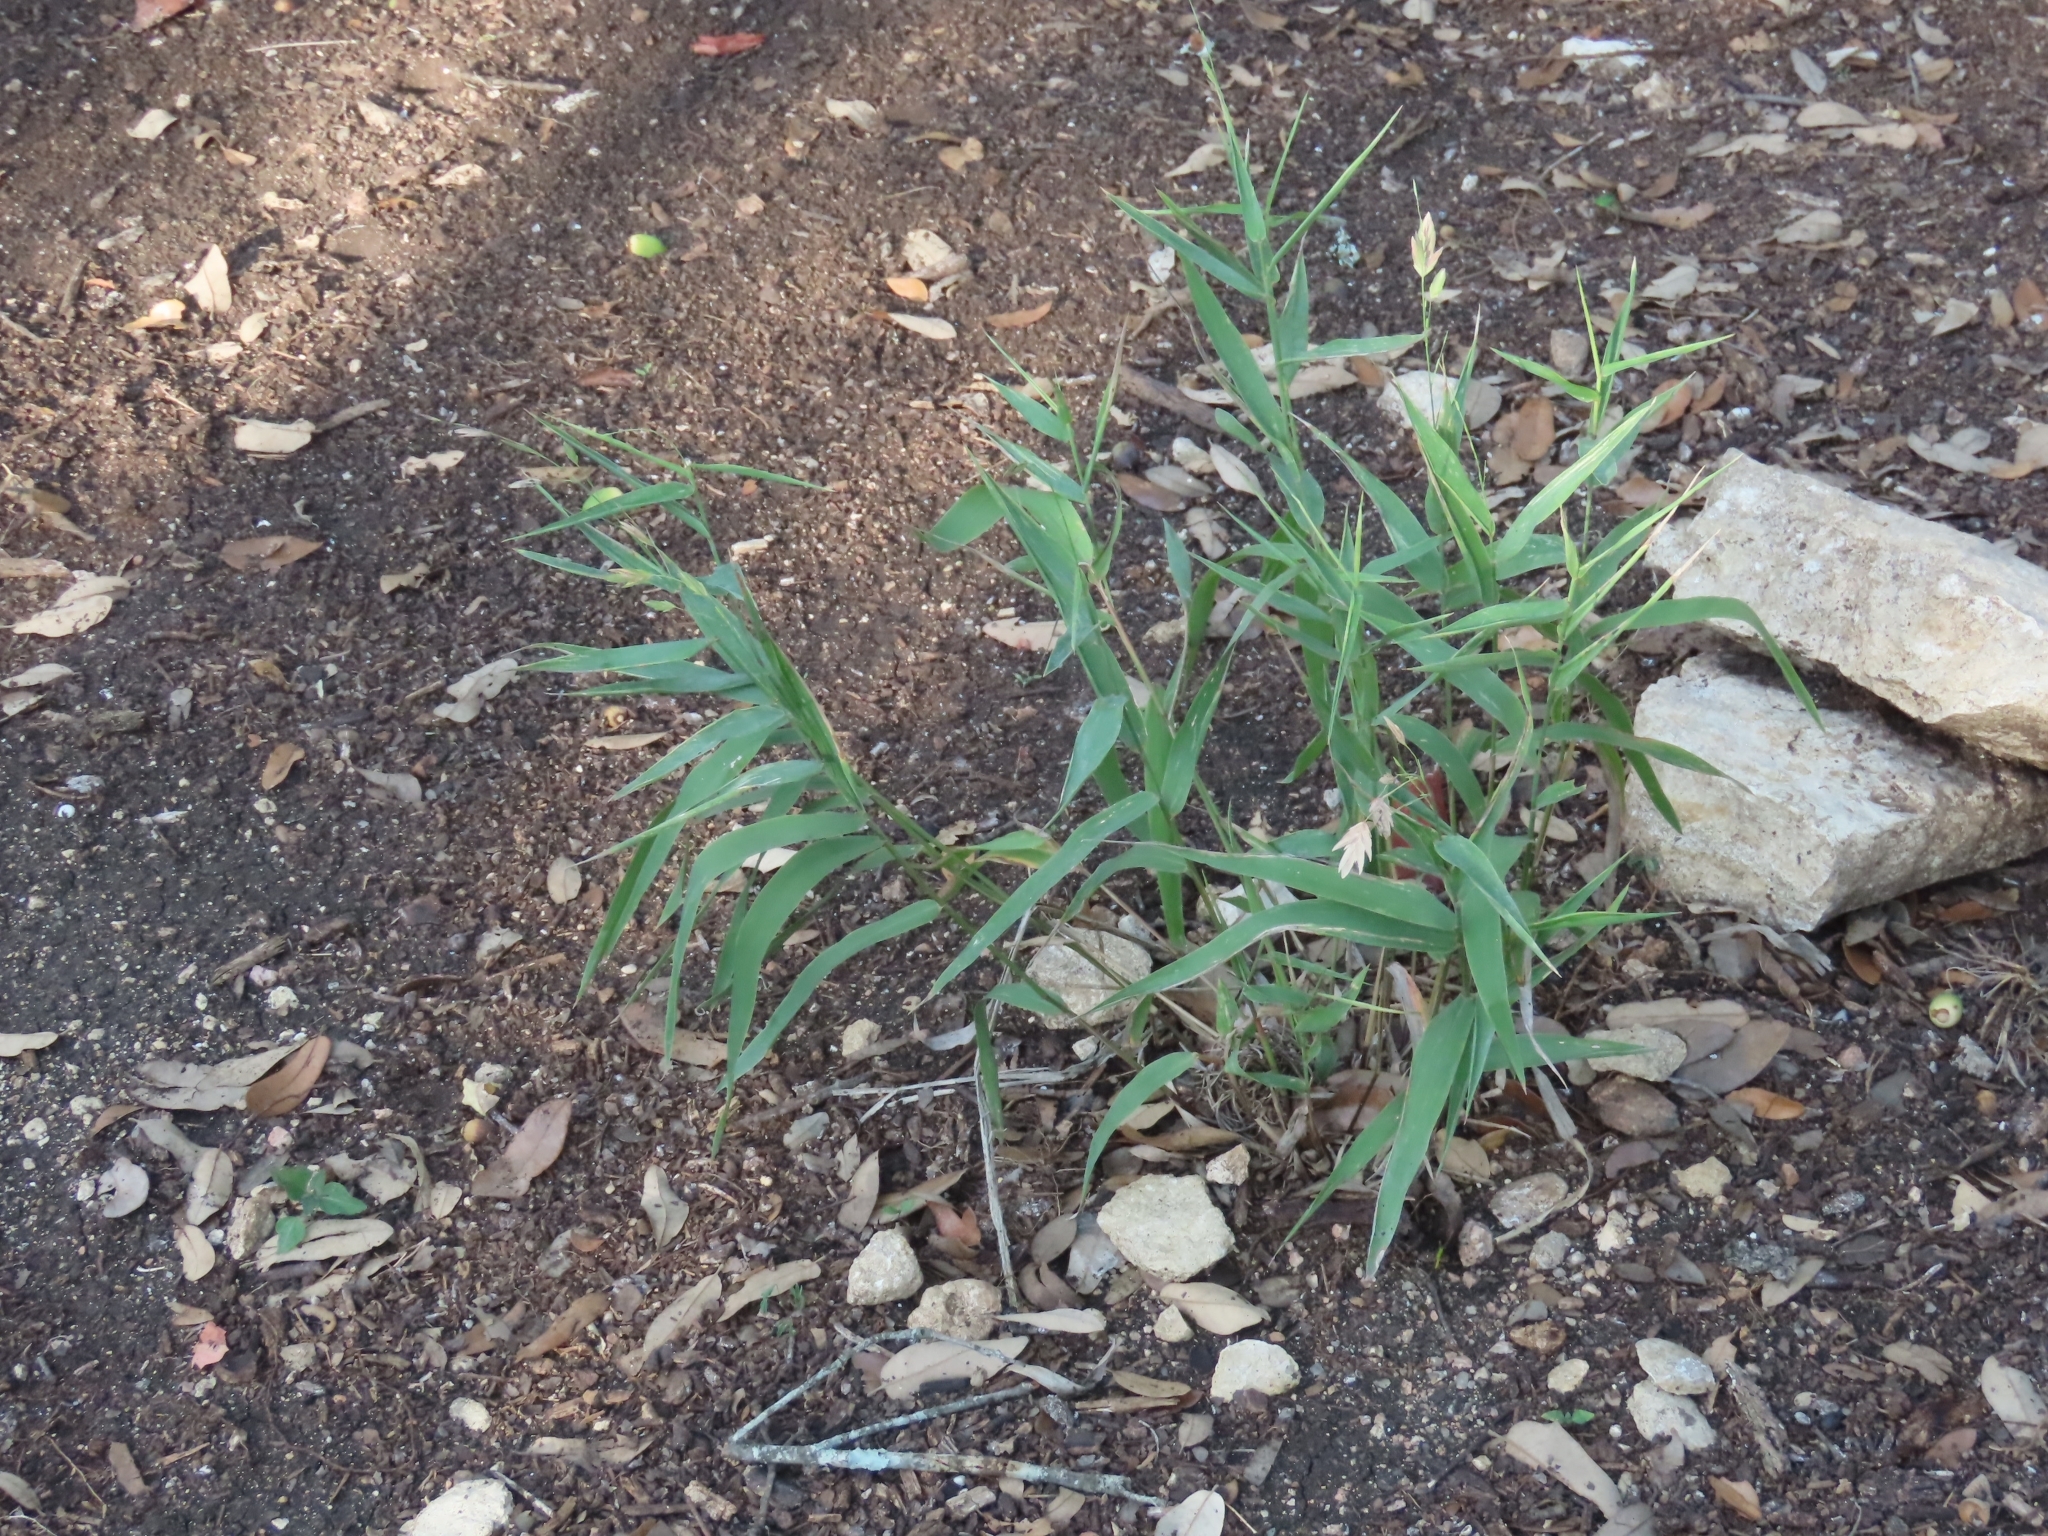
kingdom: Plantae
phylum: Tracheophyta
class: Liliopsida
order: Poales
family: Poaceae
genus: Chasmanthium
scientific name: Chasmanthium latifolium
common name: Broad-leaved chasmanthium
